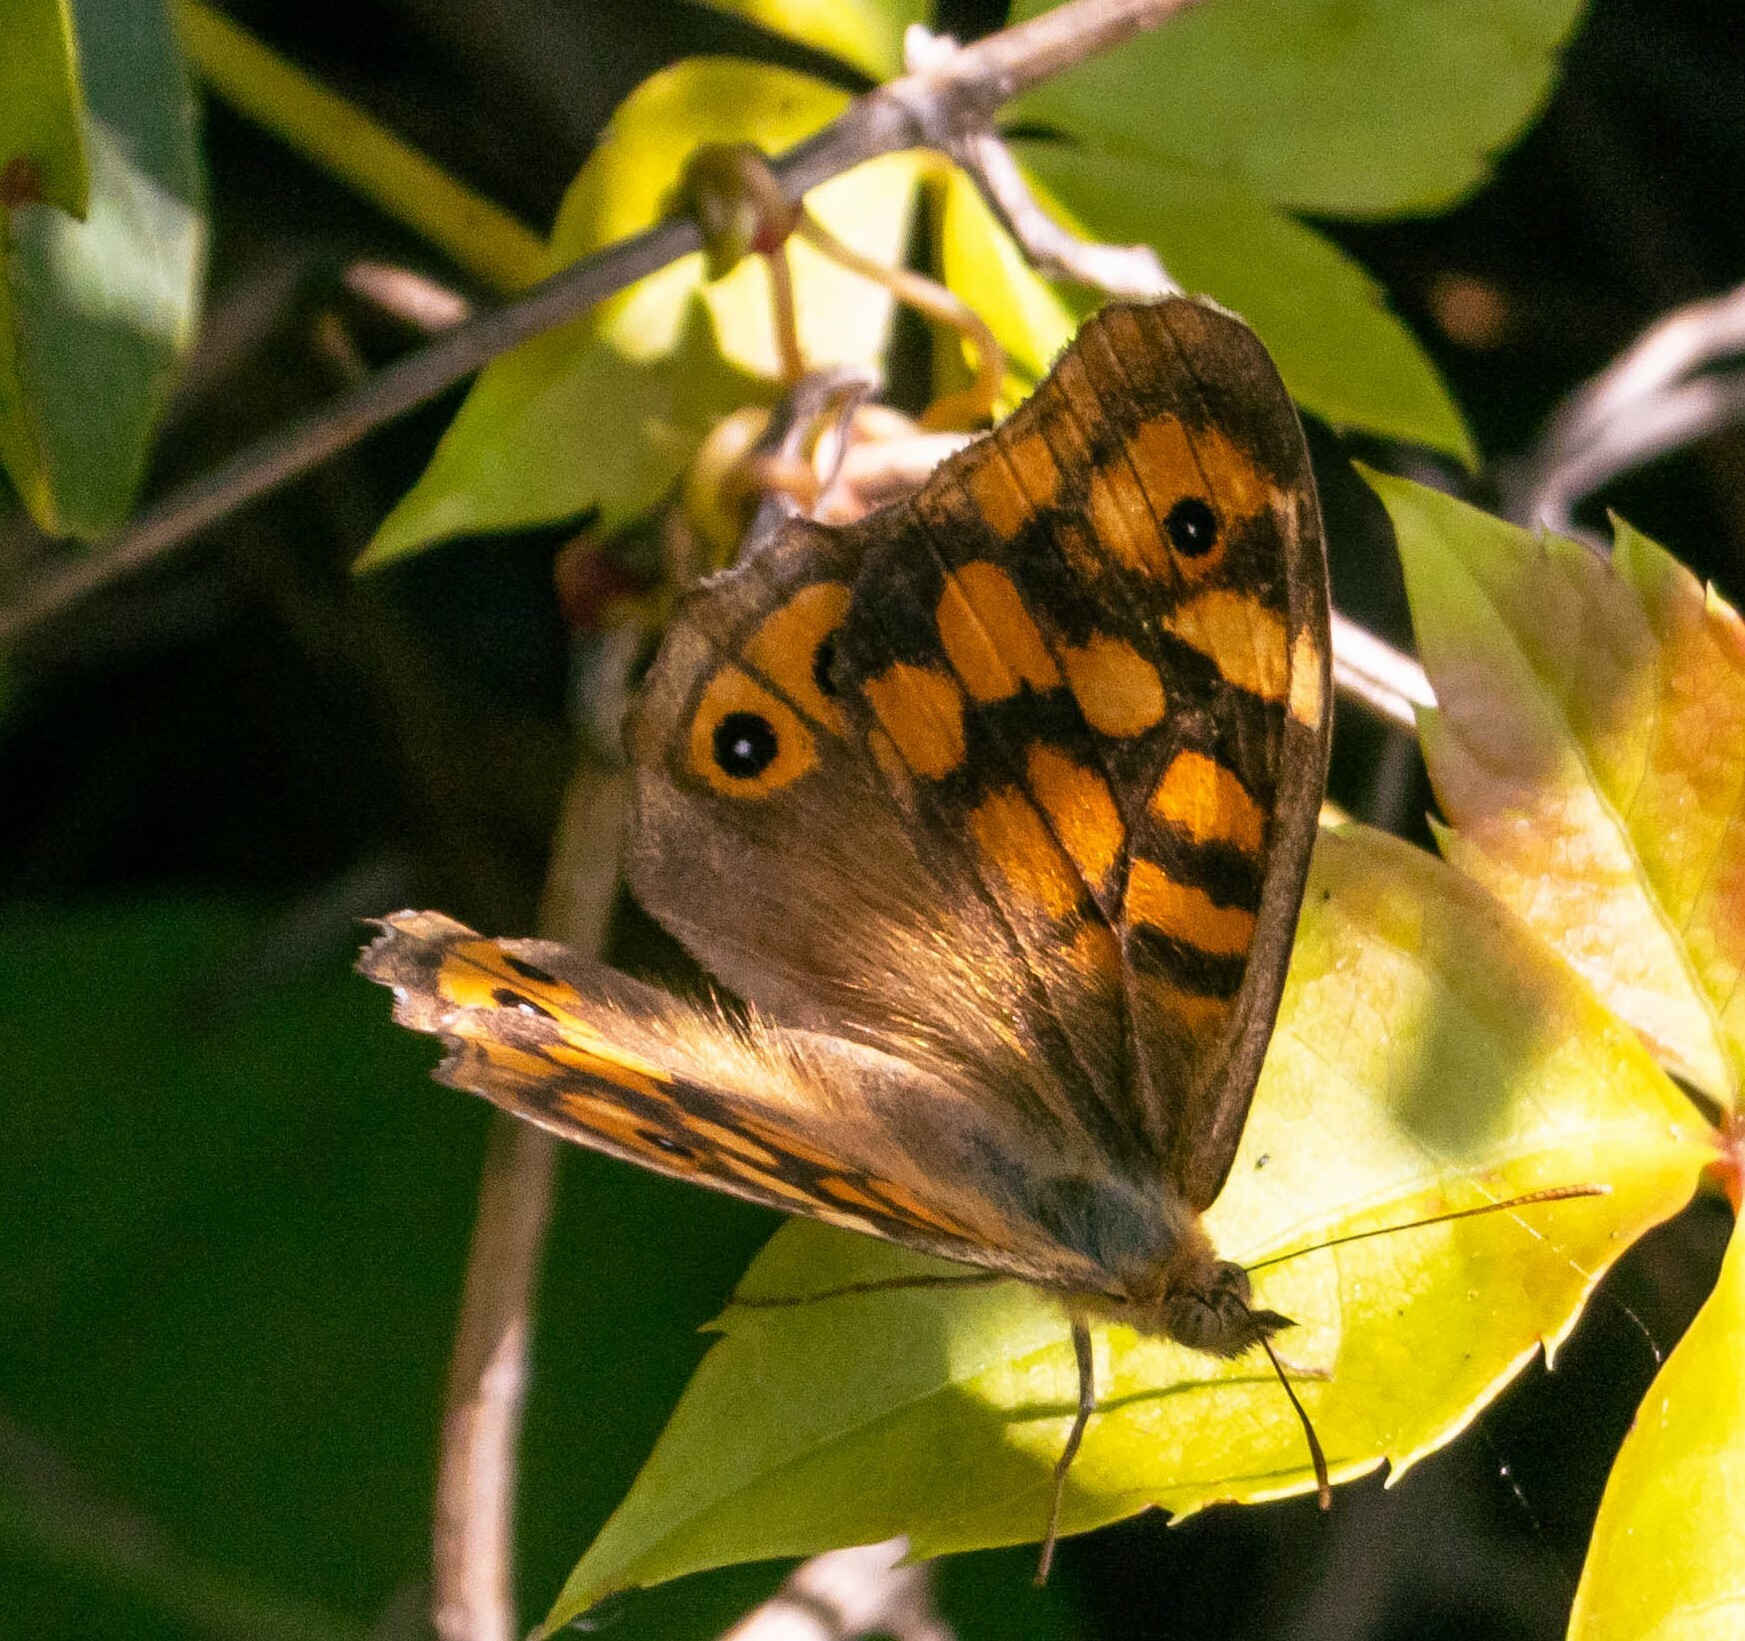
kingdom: Animalia
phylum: Arthropoda
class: Insecta
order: Lepidoptera
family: Nymphalidae
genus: Pararge
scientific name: Pararge aegeria
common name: Speckled wood
